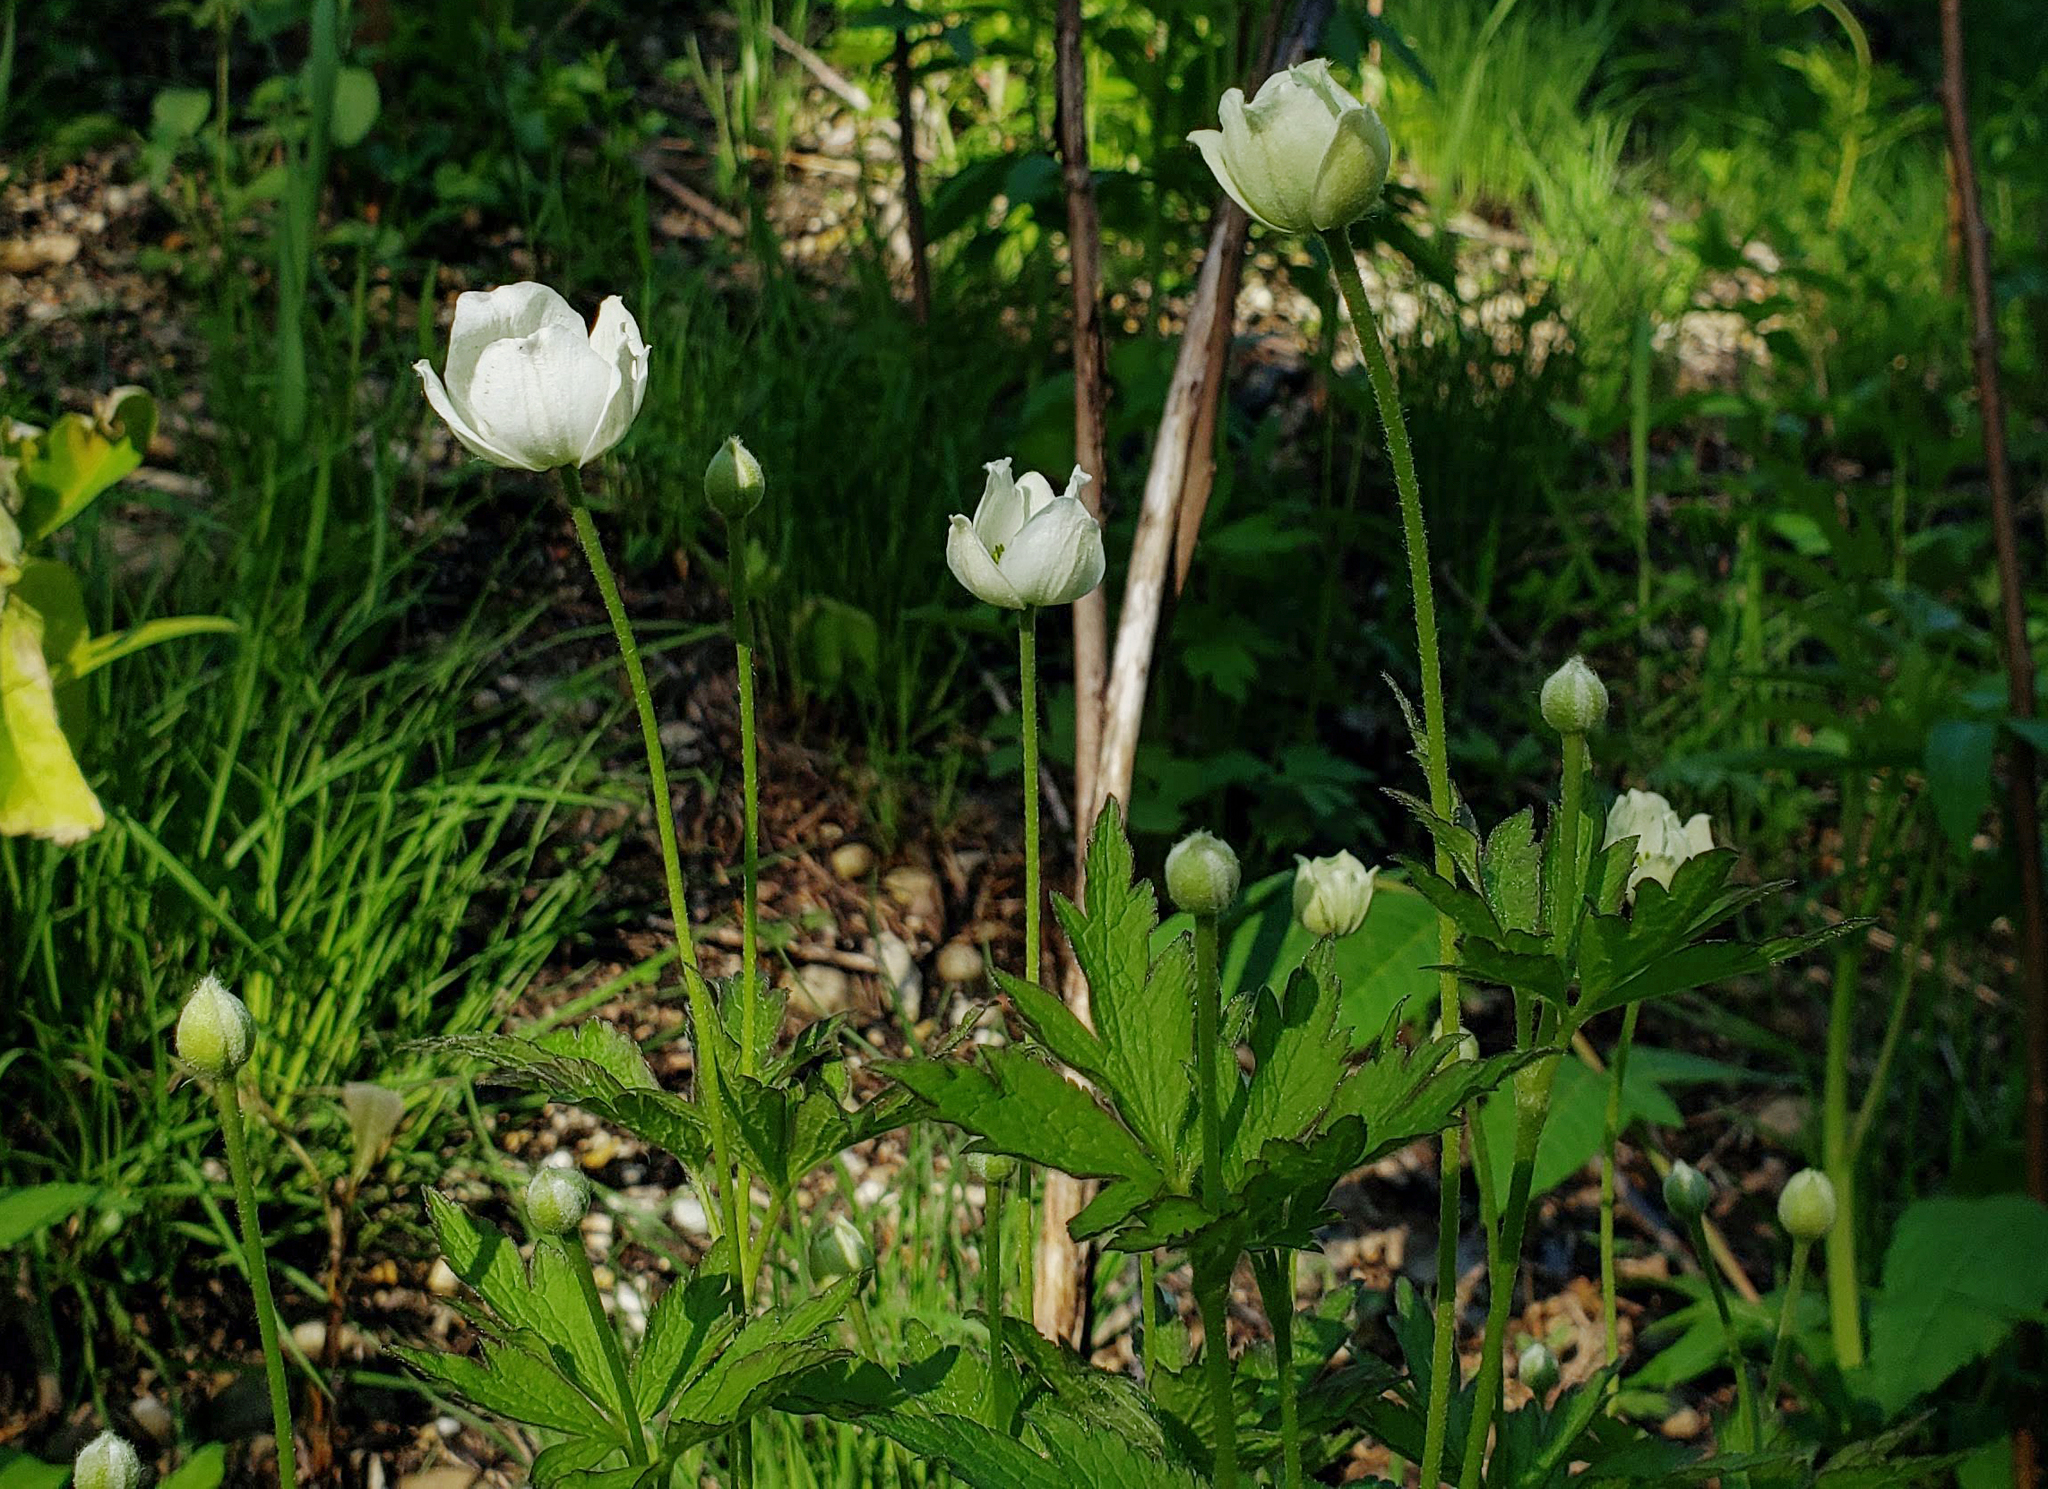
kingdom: Plantae
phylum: Tracheophyta
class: Magnoliopsida
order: Ranunculales
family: Ranunculaceae
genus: Anemone
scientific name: Anemone virginiana
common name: Tall anemone
